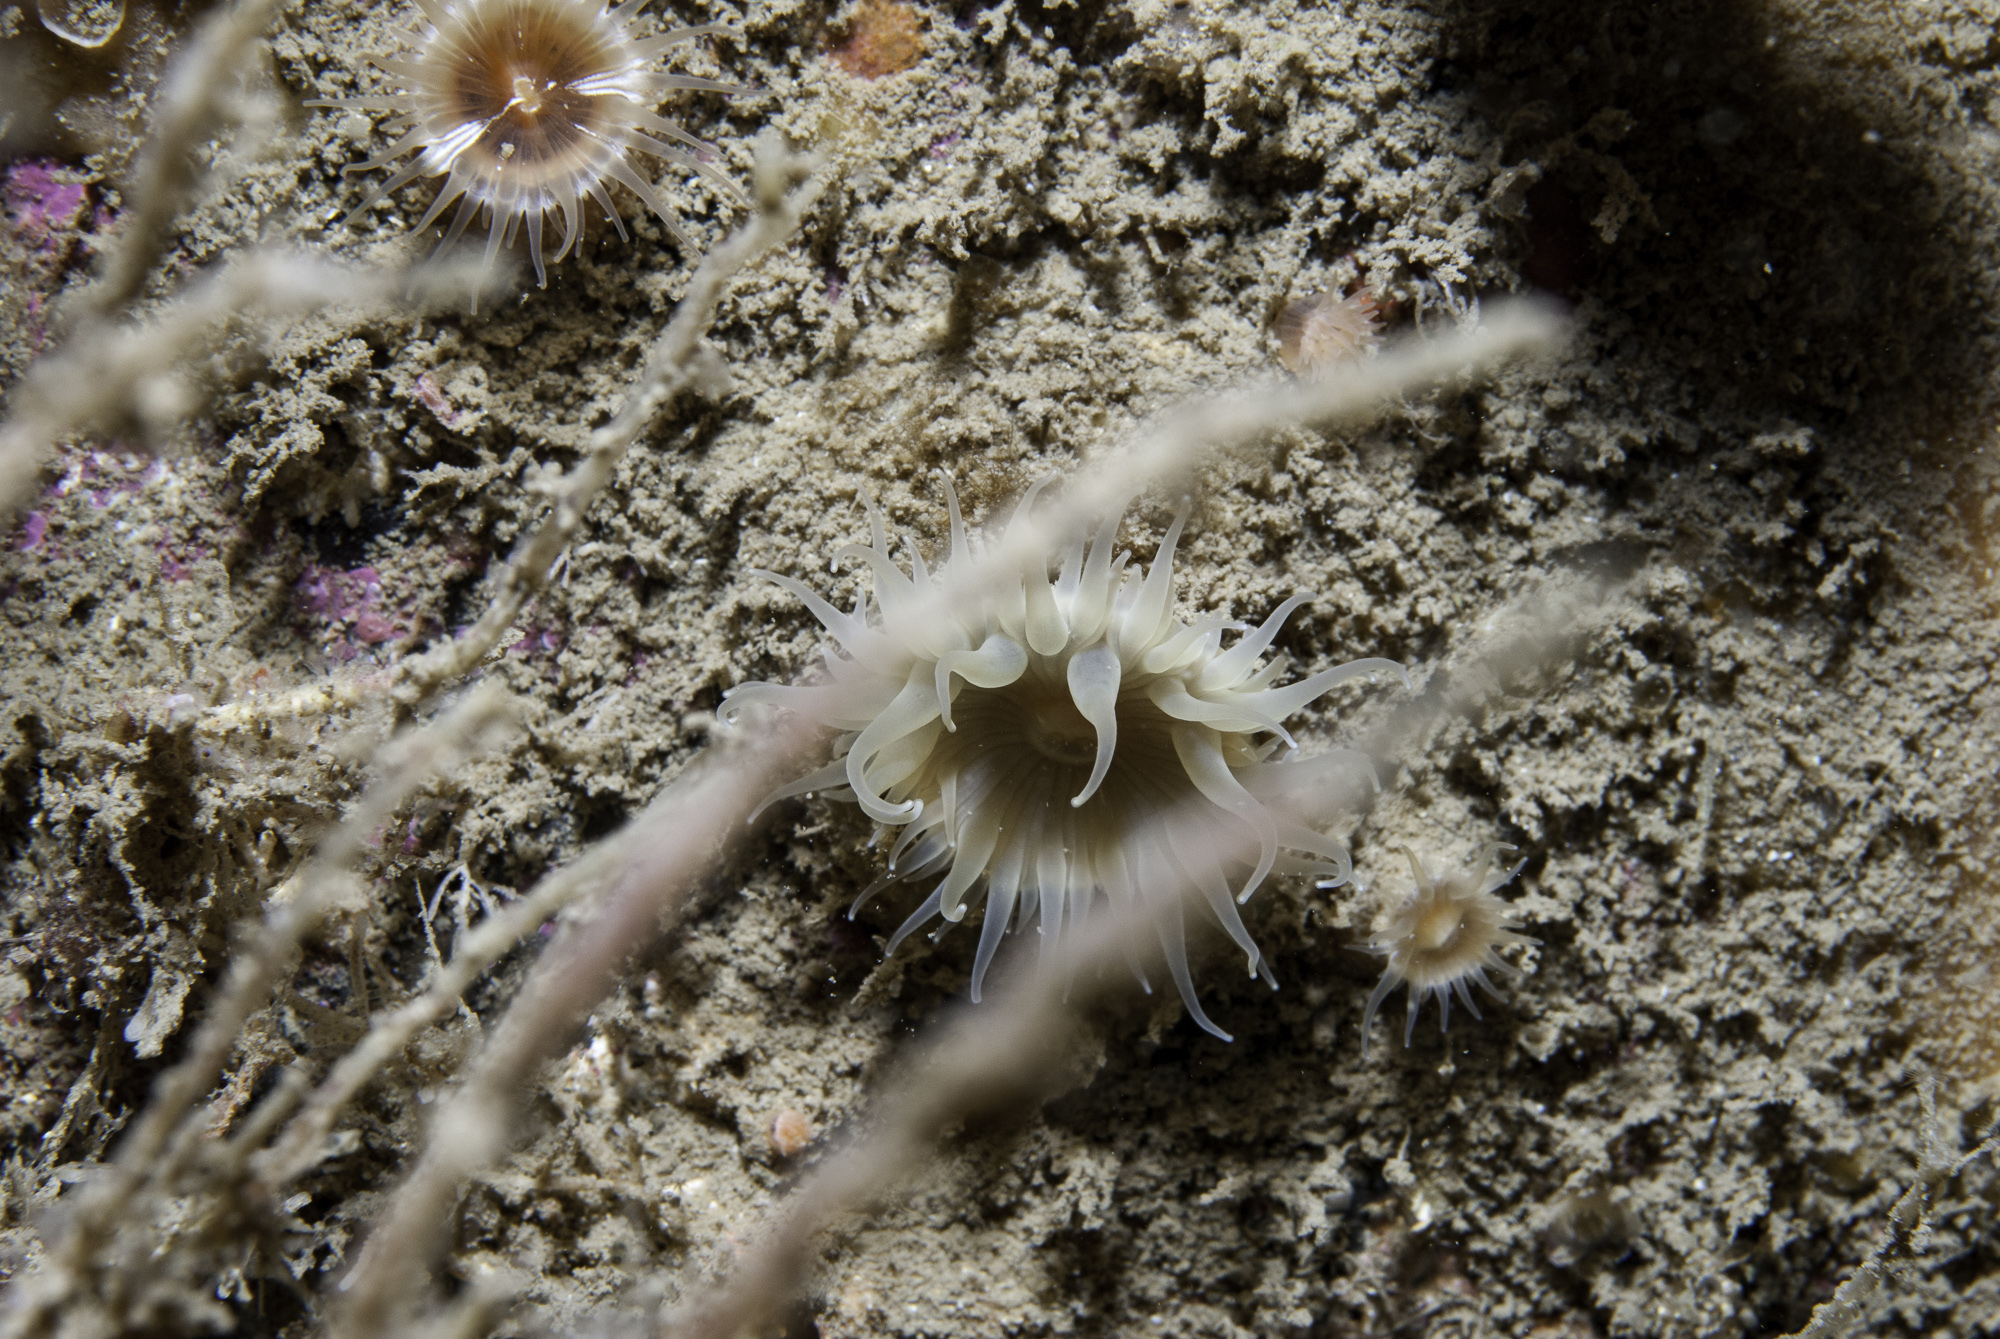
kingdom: Animalia
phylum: Cnidaria
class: Anthozoa
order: Actiniaria
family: Hormathiidae
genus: Hormathia
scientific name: Hormathia coronata
